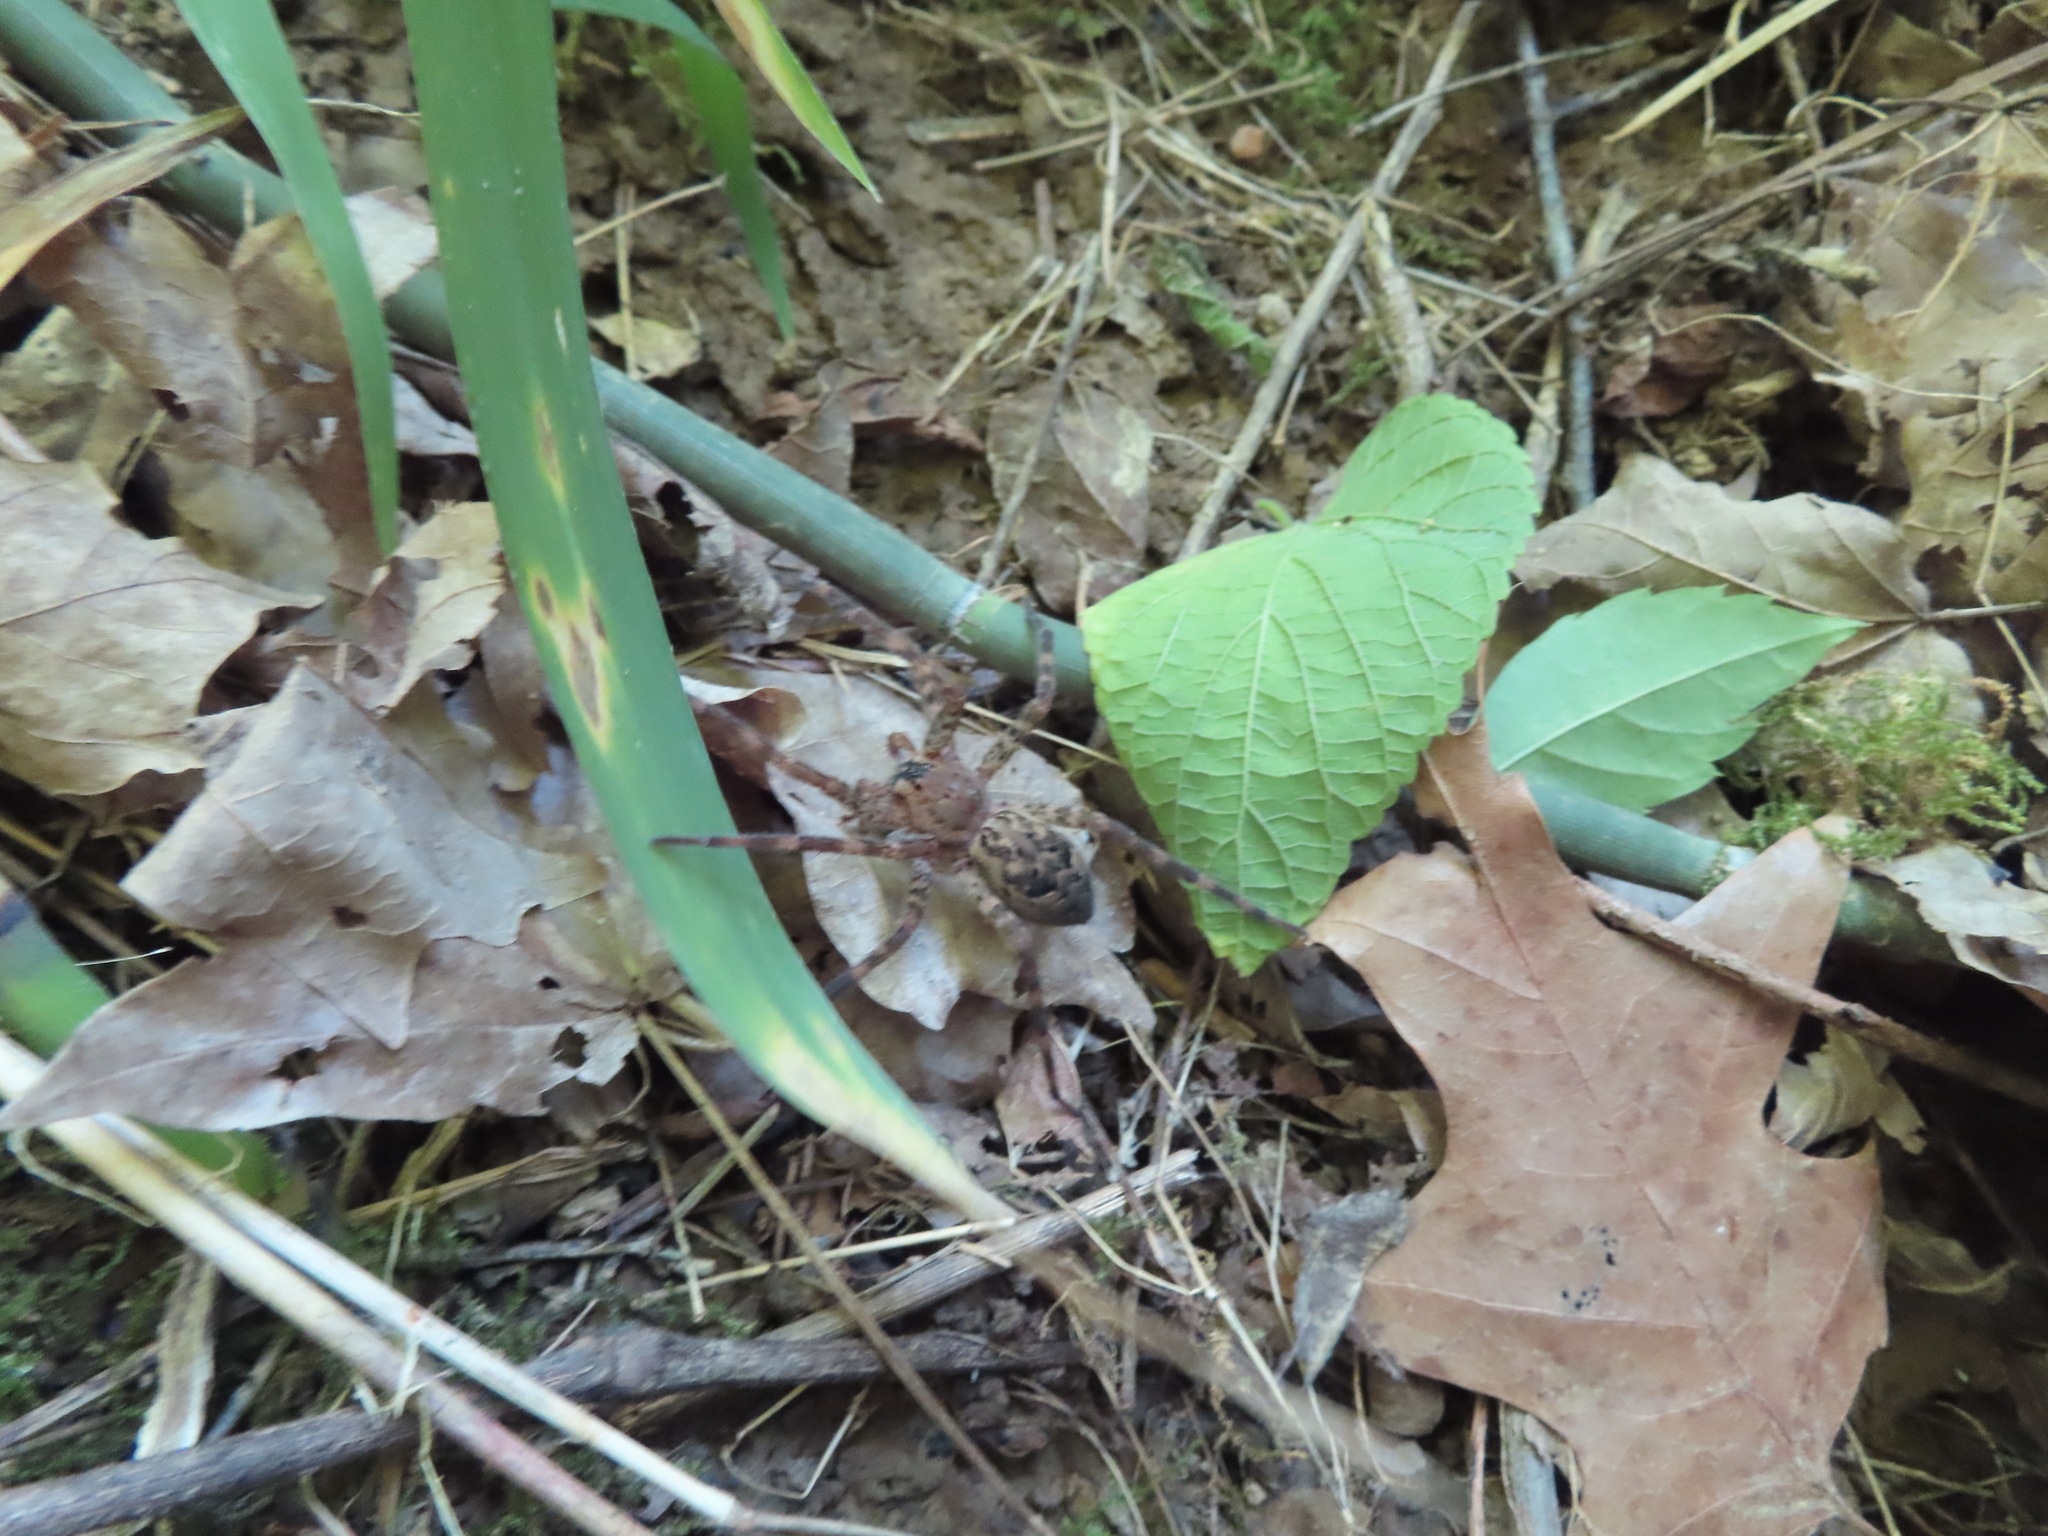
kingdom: Animalia
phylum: Arthropoda
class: Arachnida
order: Araneae
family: Pisauridae
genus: Dolomedes
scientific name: Dolomedes tenebrosus
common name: Dark fishing spider
